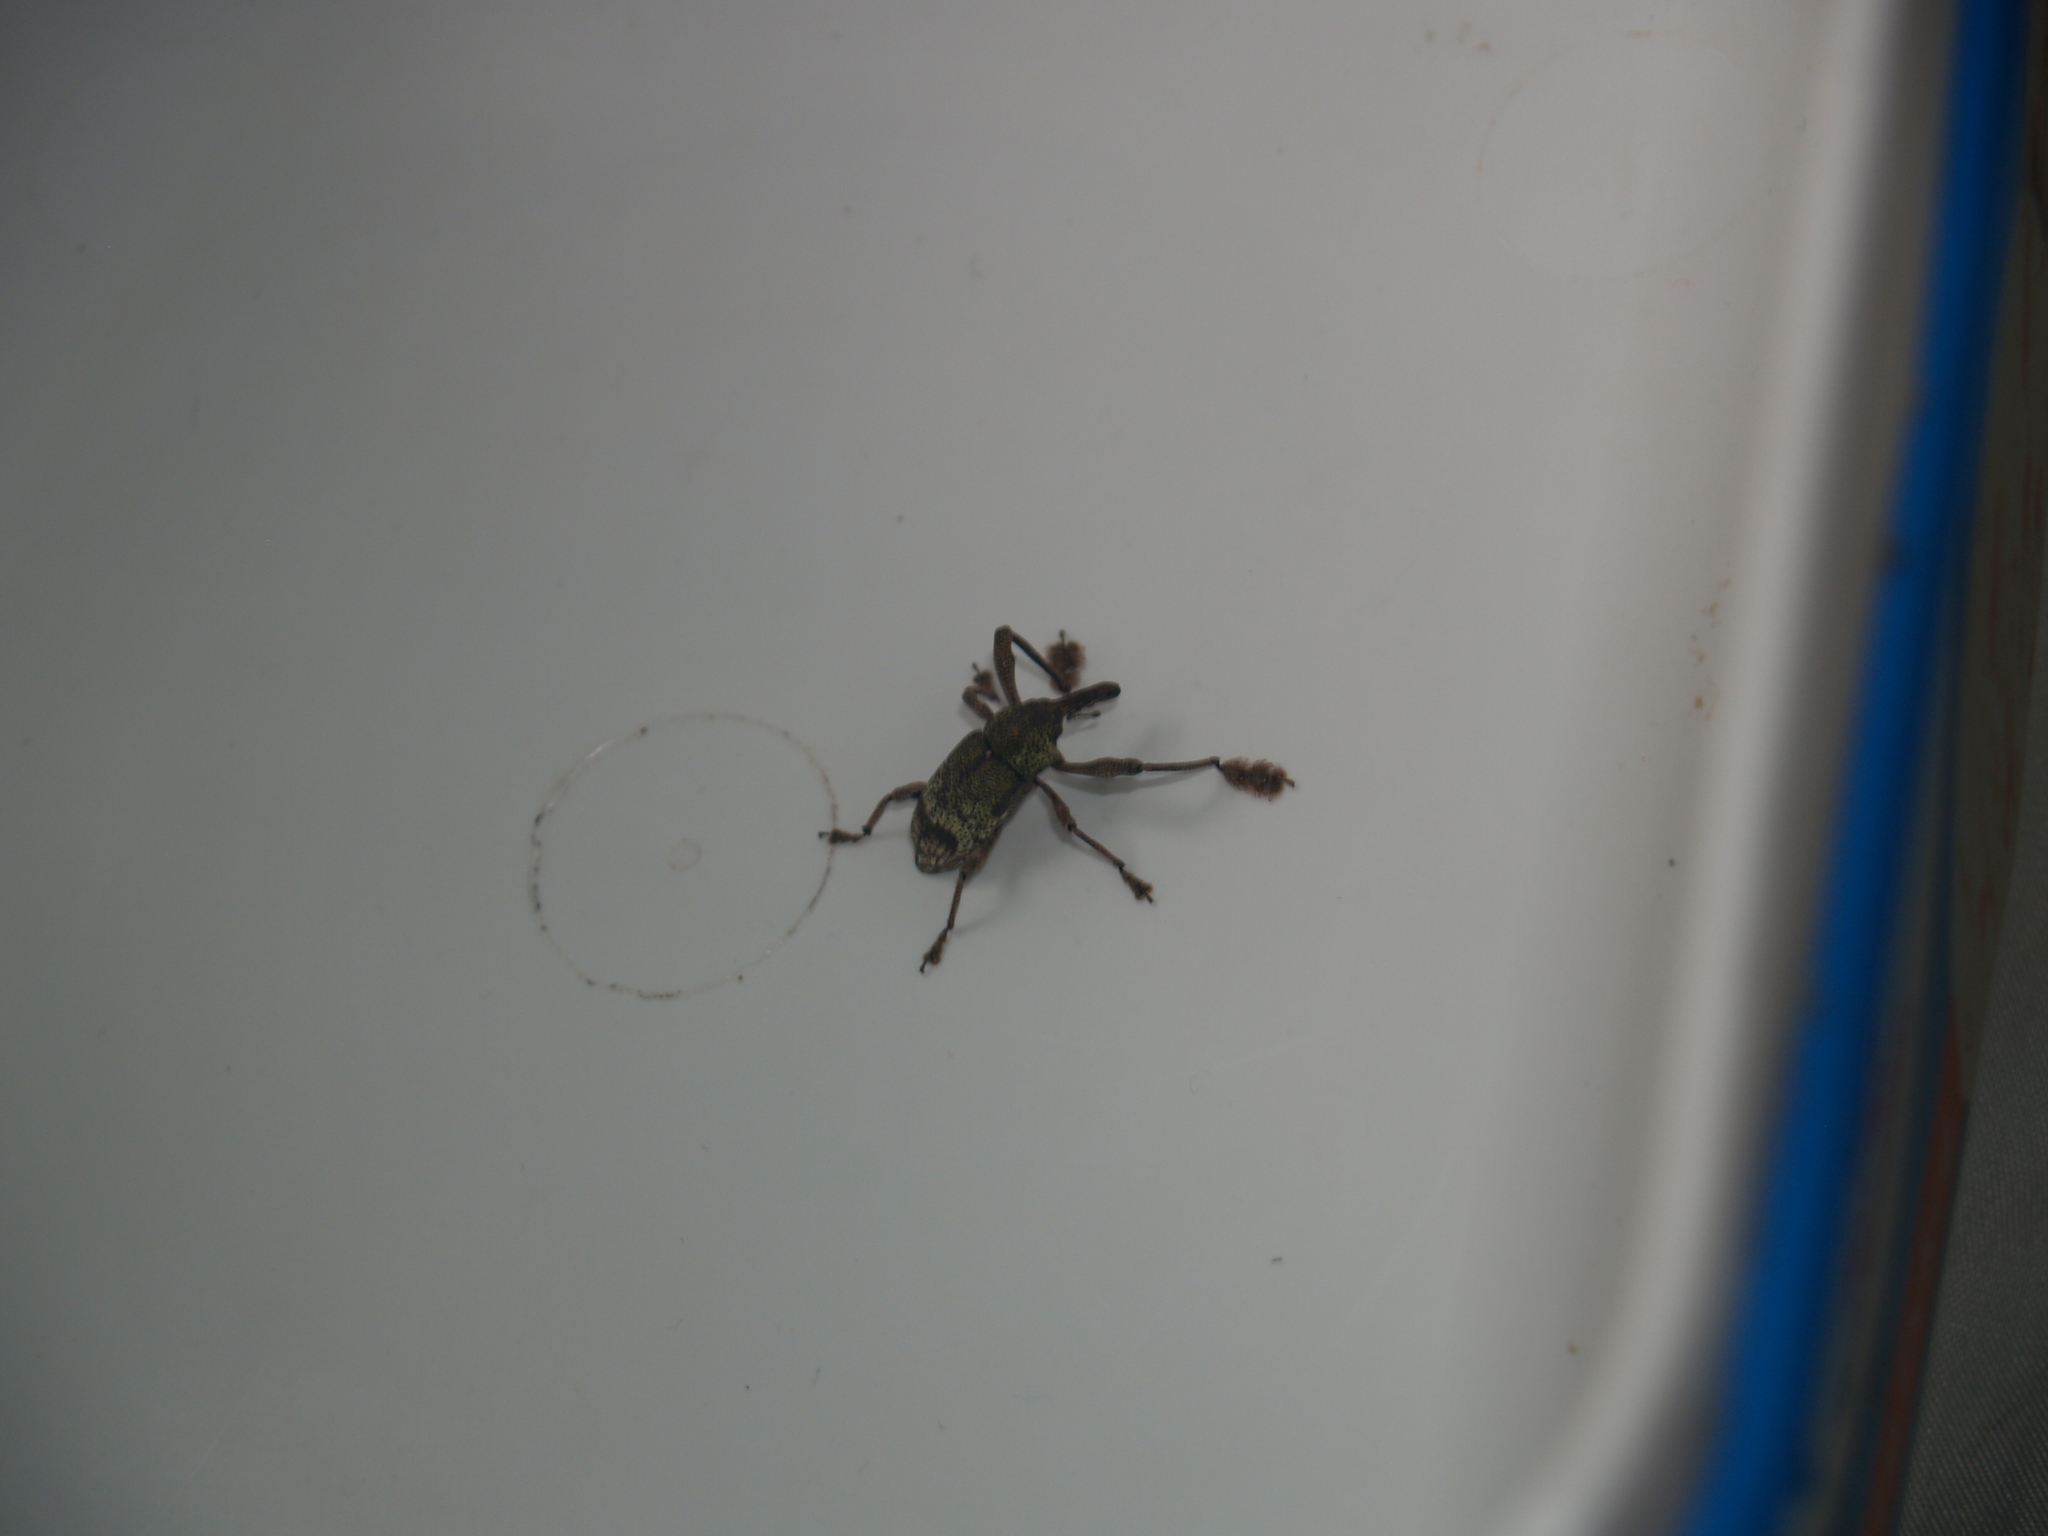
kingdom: Animalia
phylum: Arthropoda
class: Insecta
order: Coleoptera
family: Curculionidae
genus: Allorthorhinus
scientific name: Allorthorhinus
